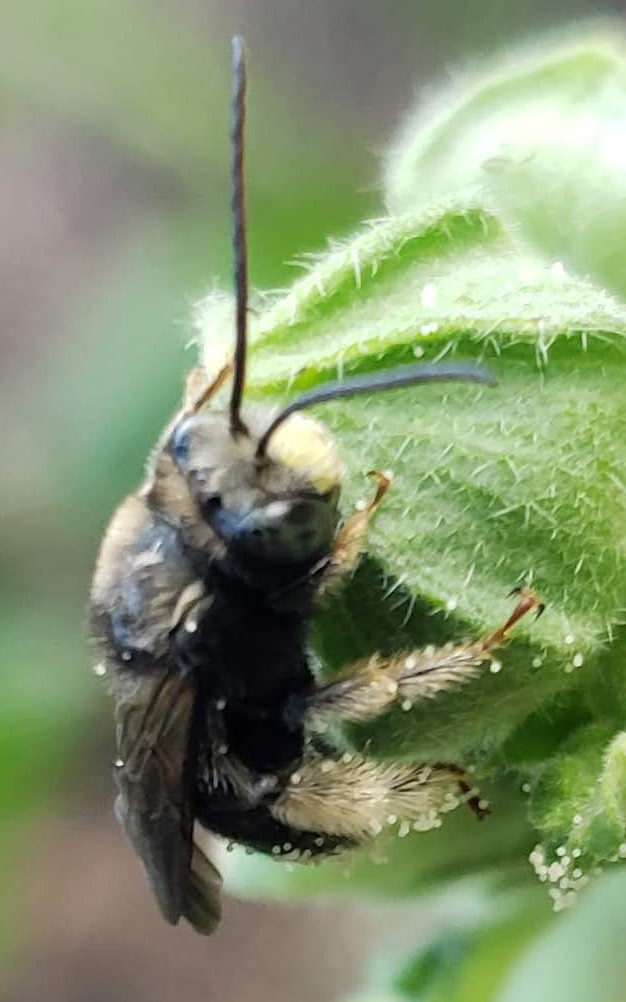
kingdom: Animalia
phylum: Arthropoda
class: Insecta
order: Hymenoptera
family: Apidae
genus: Melissodes
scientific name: Melissodes bimaculatus
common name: Two-spotted long-horned bee
